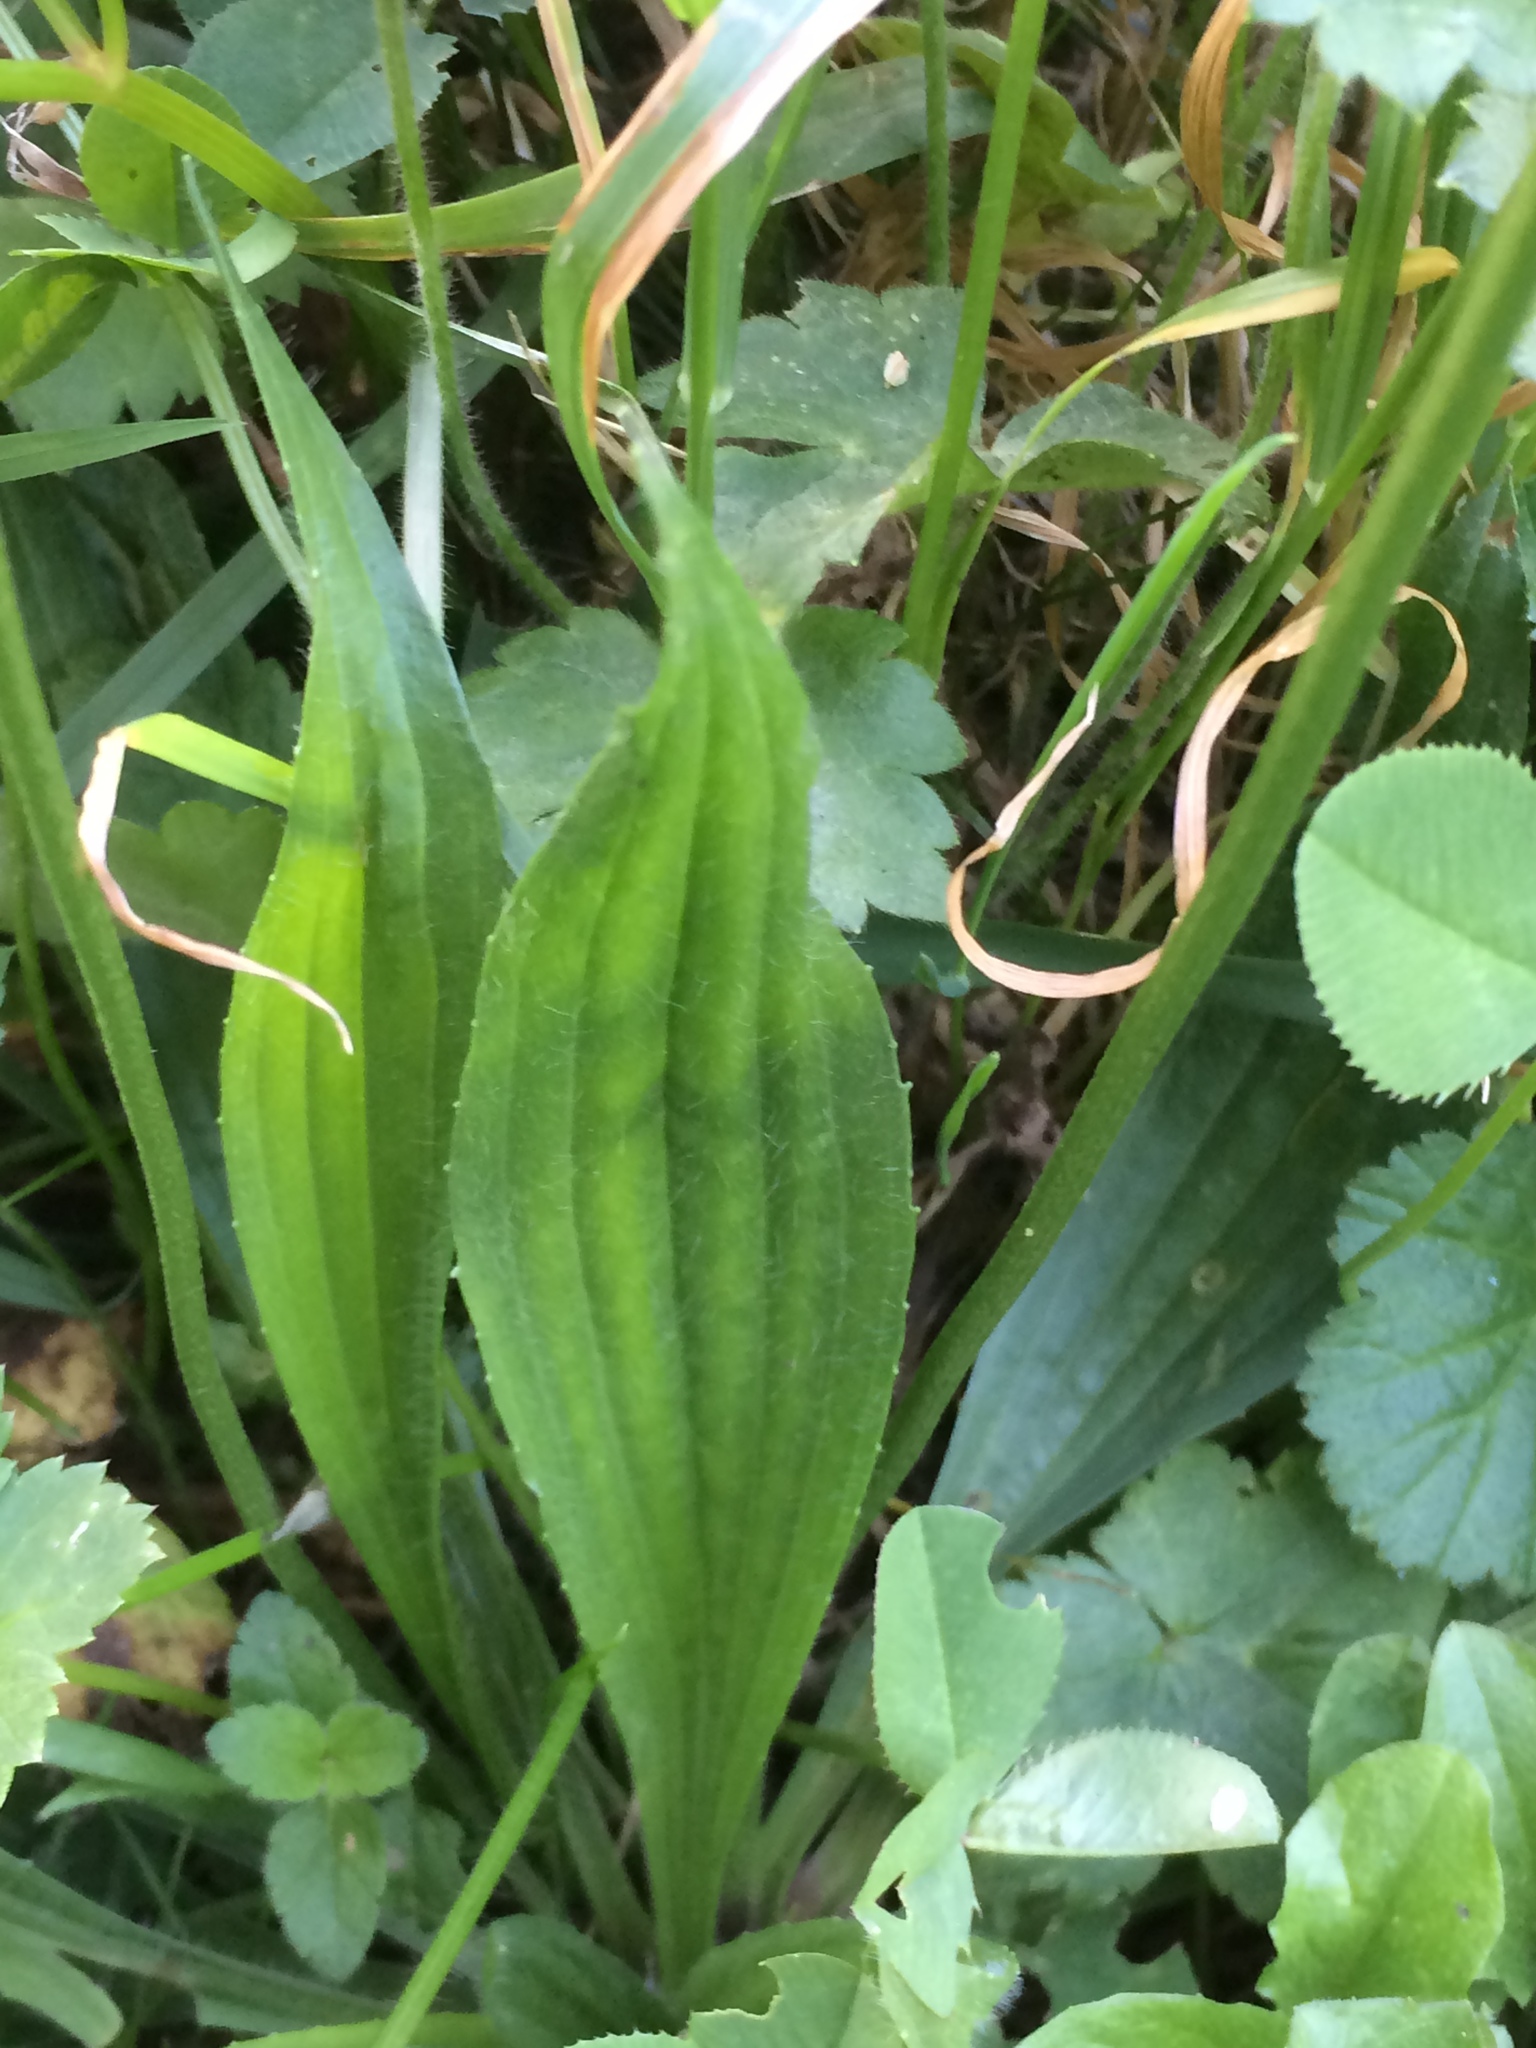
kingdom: Plantae
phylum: Tracheophyta
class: Magnoliopsida
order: Lamiales
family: Plantaginaceae
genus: Plantago
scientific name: Plantago lanceolata
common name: Ribwort plantain
